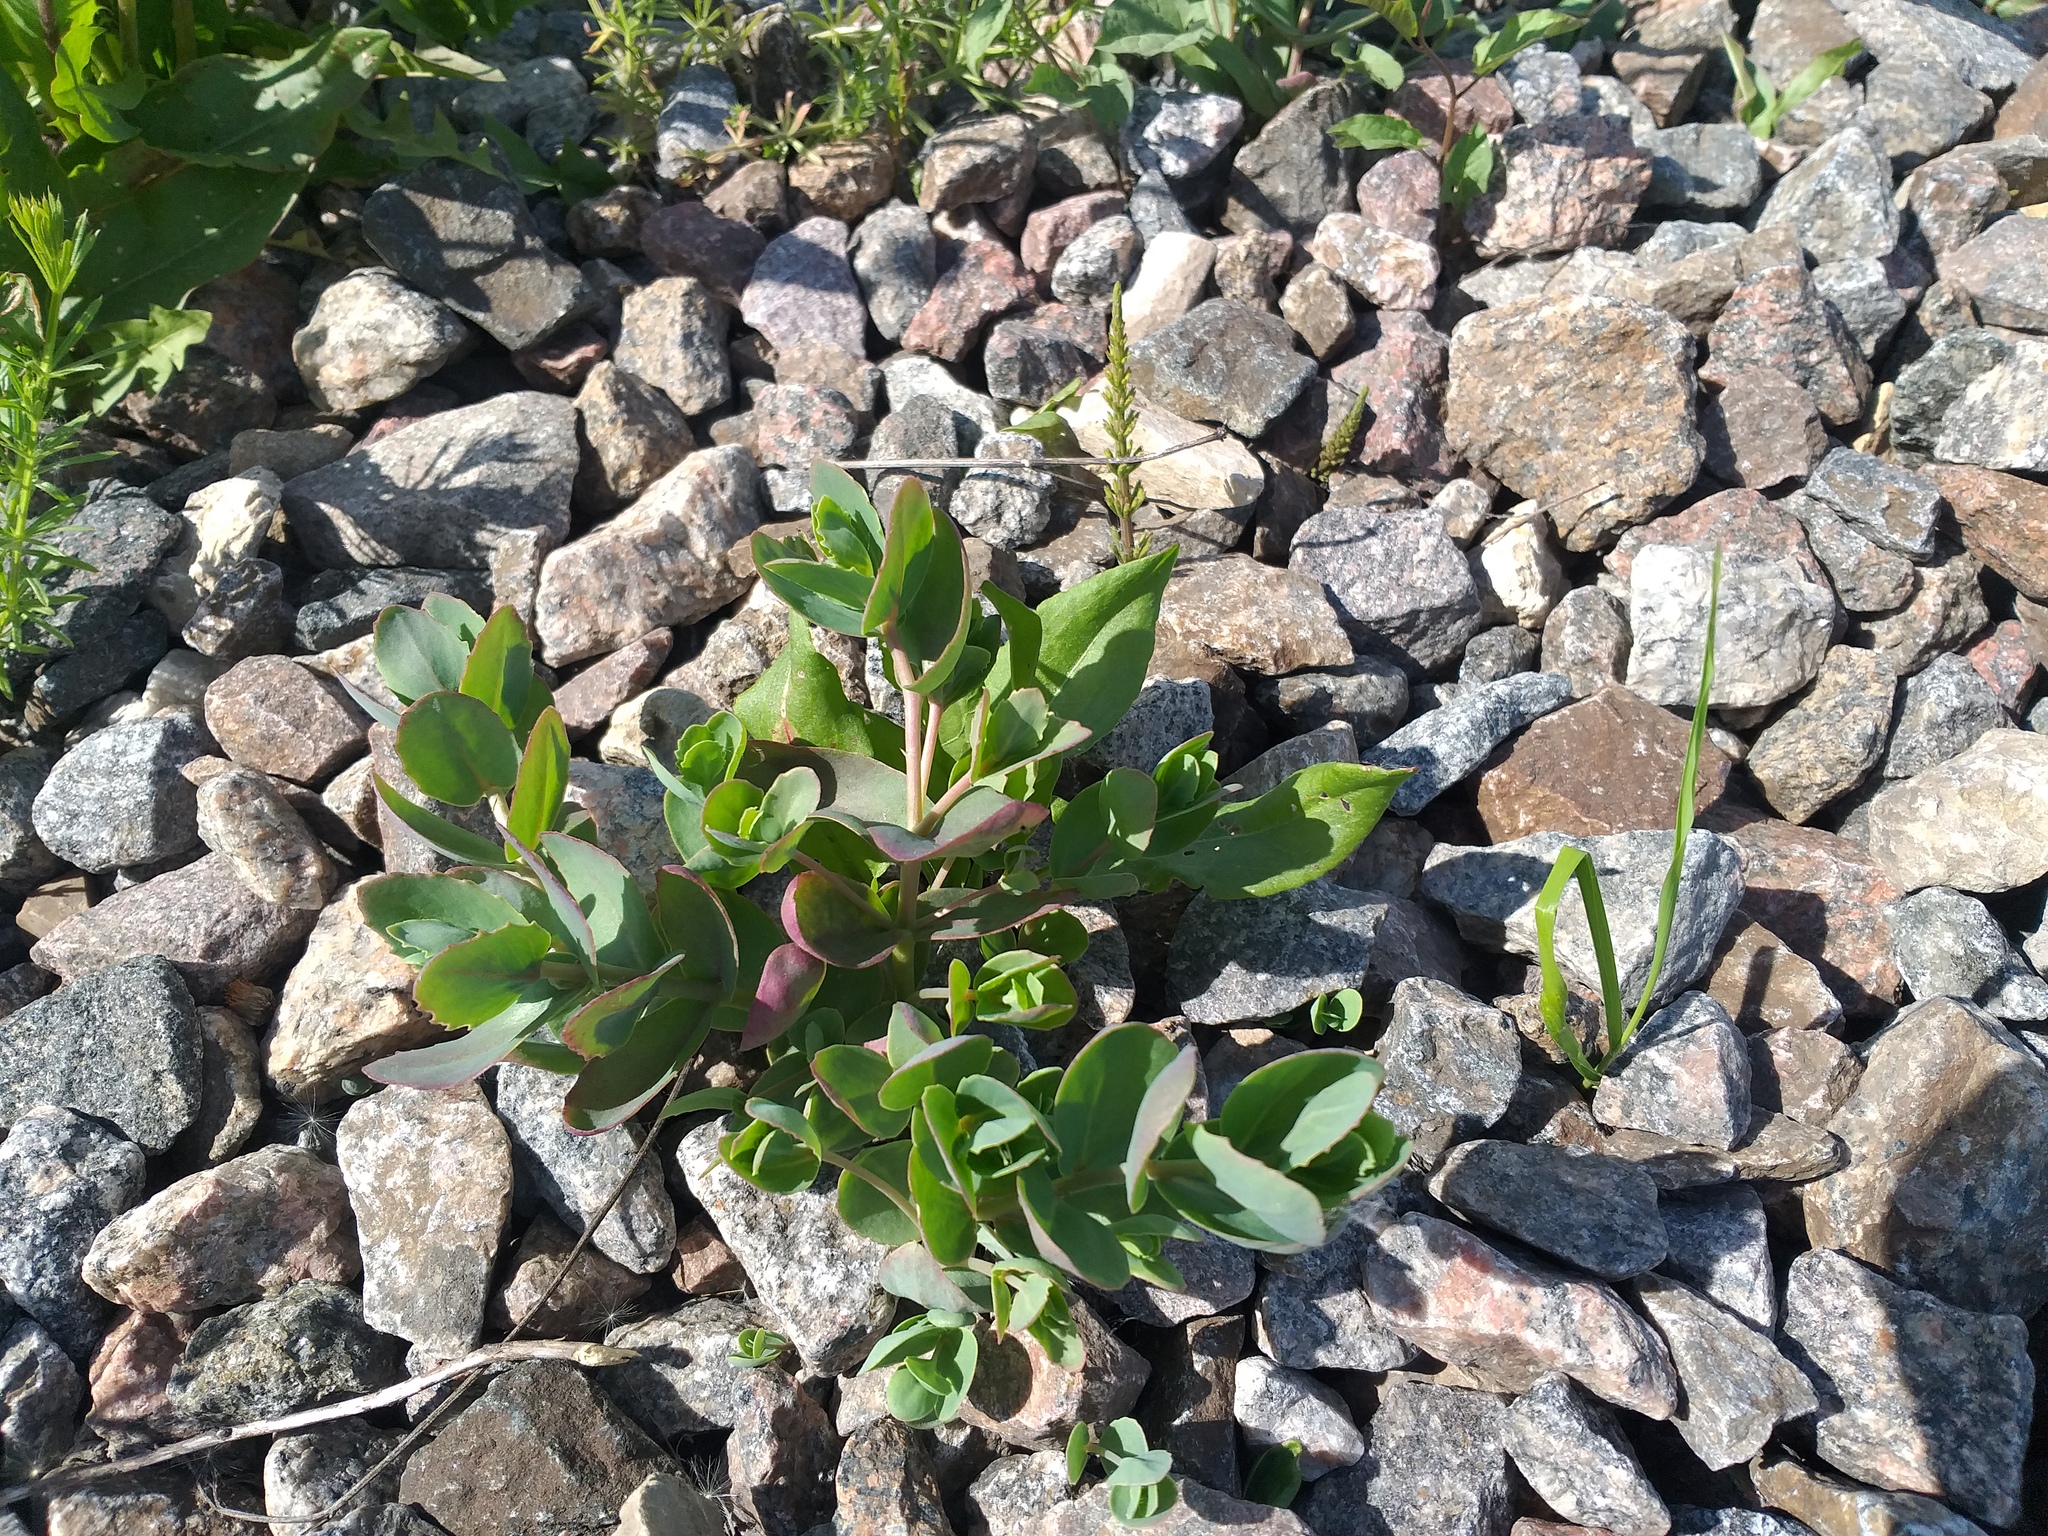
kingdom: Plantae
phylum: Tracheophyta
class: Magnoliopsida
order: Saxifragales
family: Crassulaceae
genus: Hylotelephium
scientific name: Hylotelephium maximum
